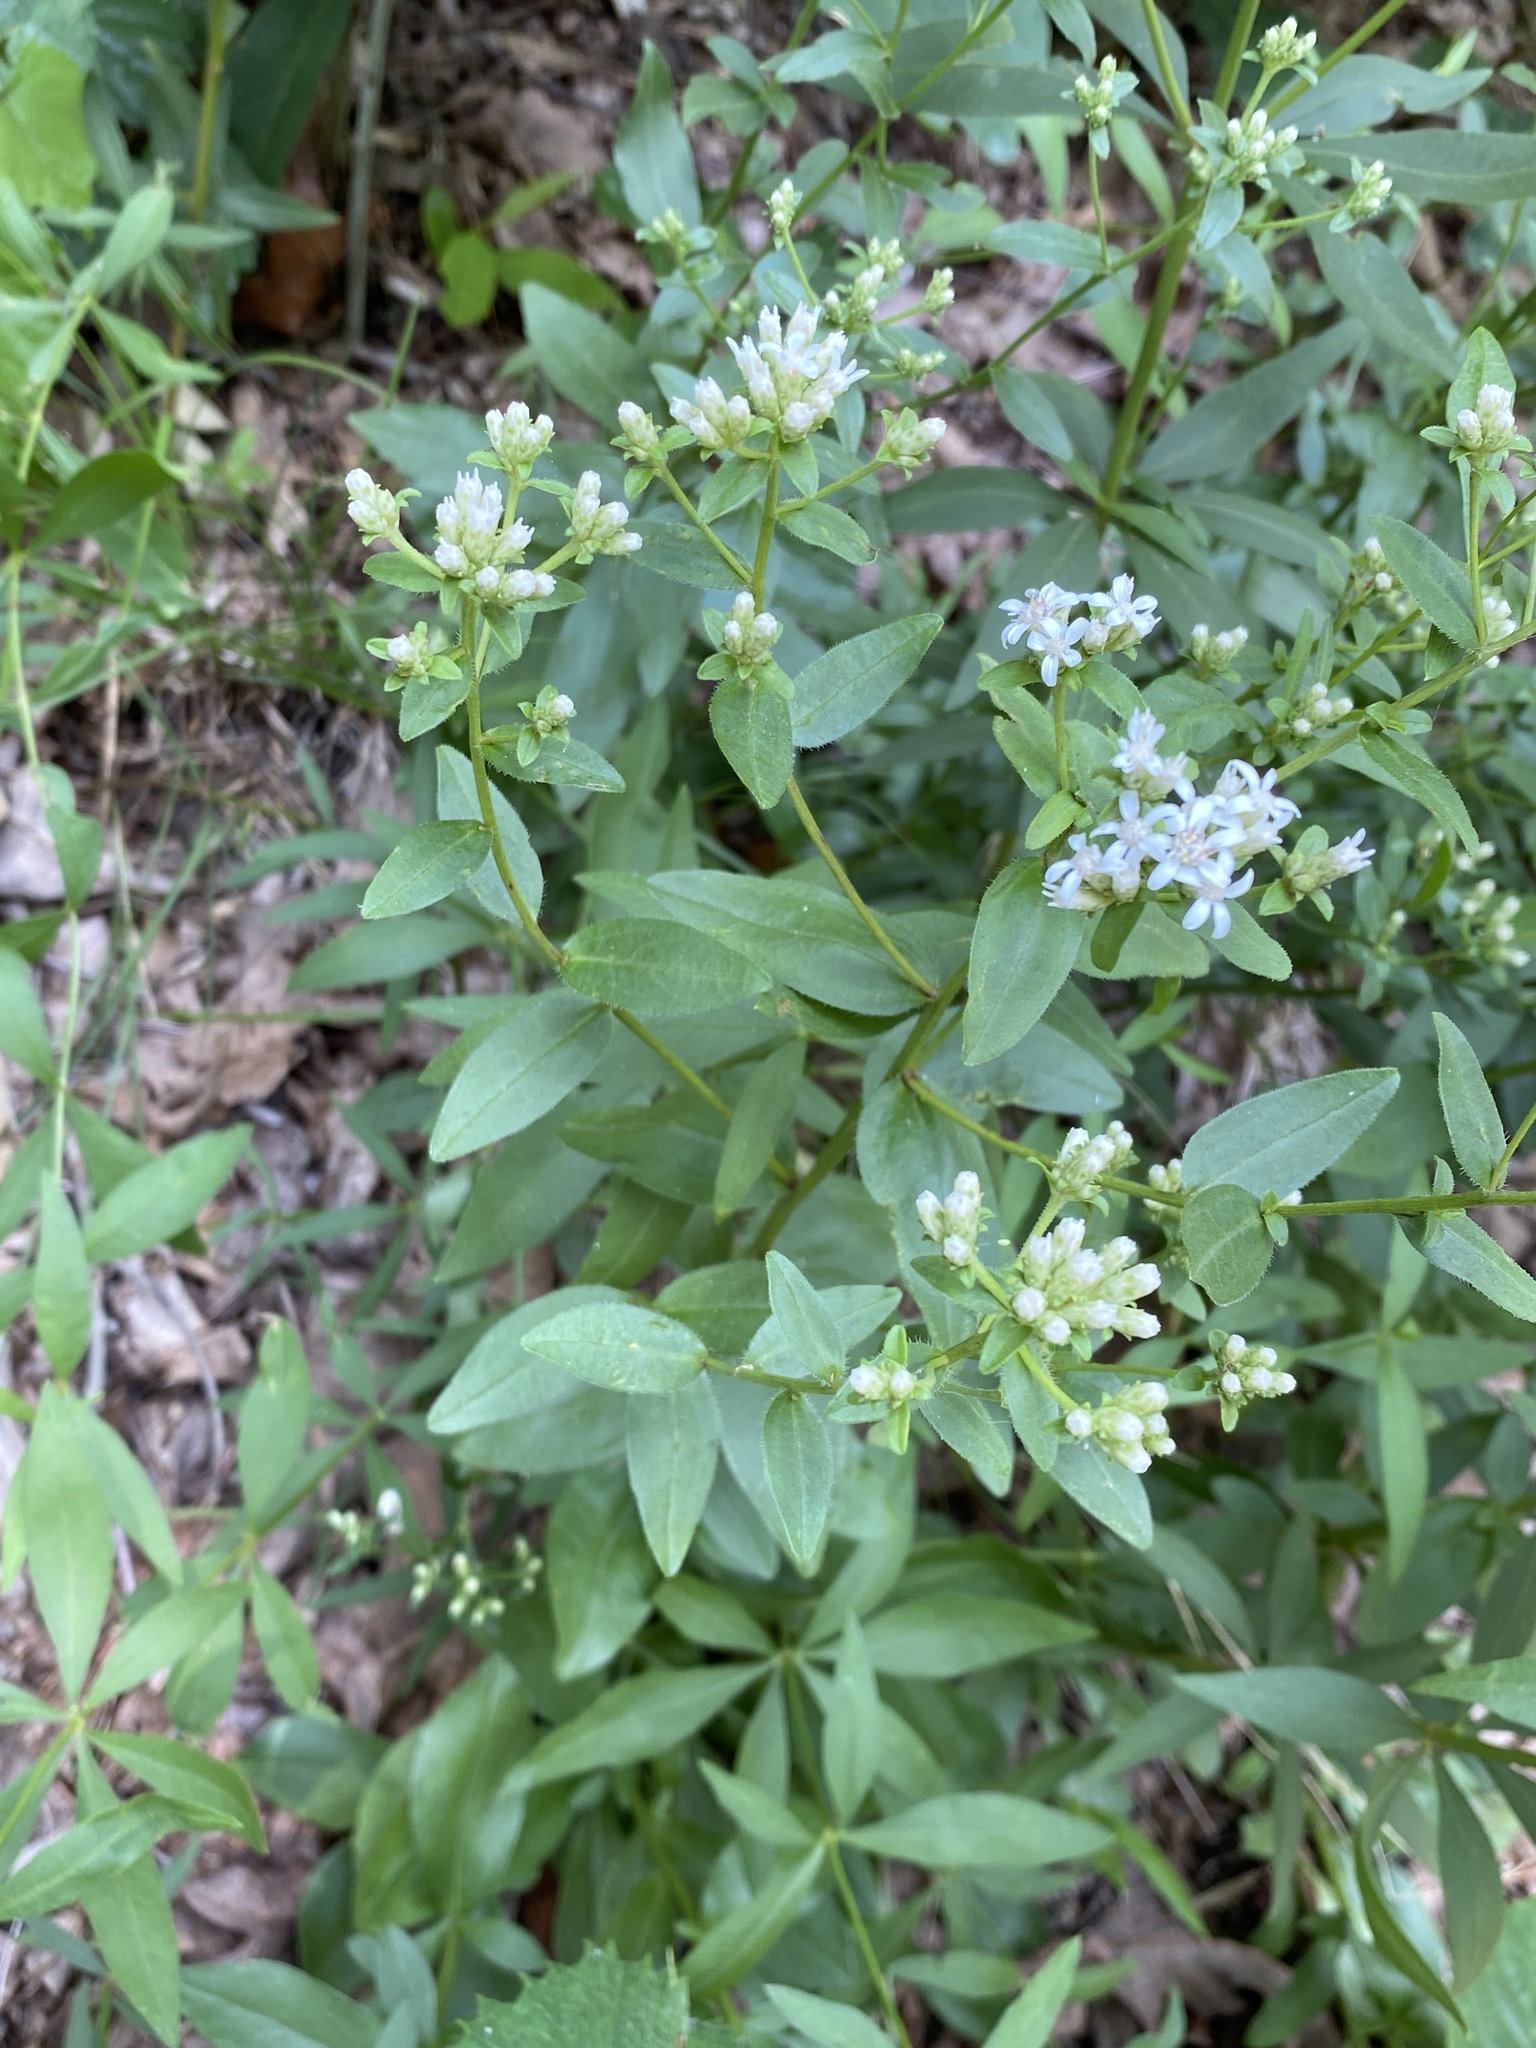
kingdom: Plantae
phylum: Tracheophyta
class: Magnoliopsida
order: Asterales
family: Asteraceae
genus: Sericocarpus
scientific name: Sericocarpus asteroides
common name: Toothed white-top aster
